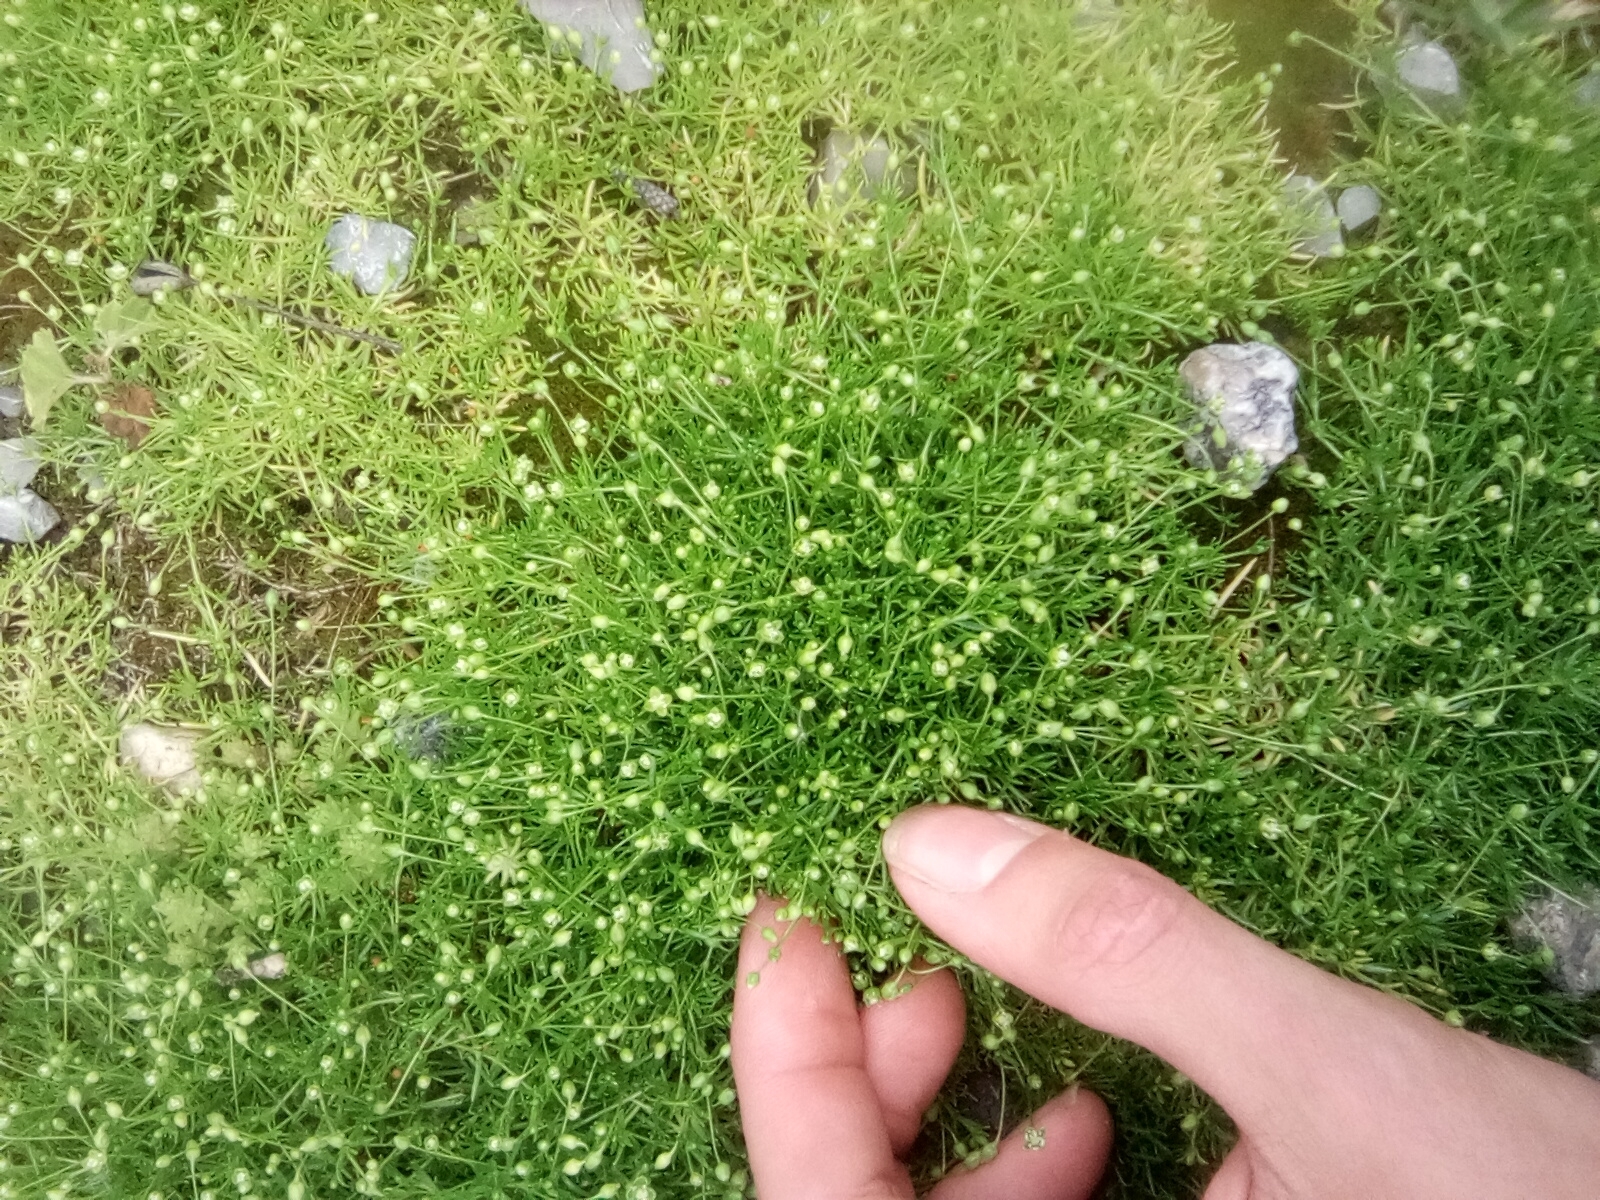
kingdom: Plantae
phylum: Tracheophyta
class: Magnoliopsida
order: Caryophyllales
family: Caryophyllaceae
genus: Sagina
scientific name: Sagina procumbens
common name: Procumbent pearlwort
